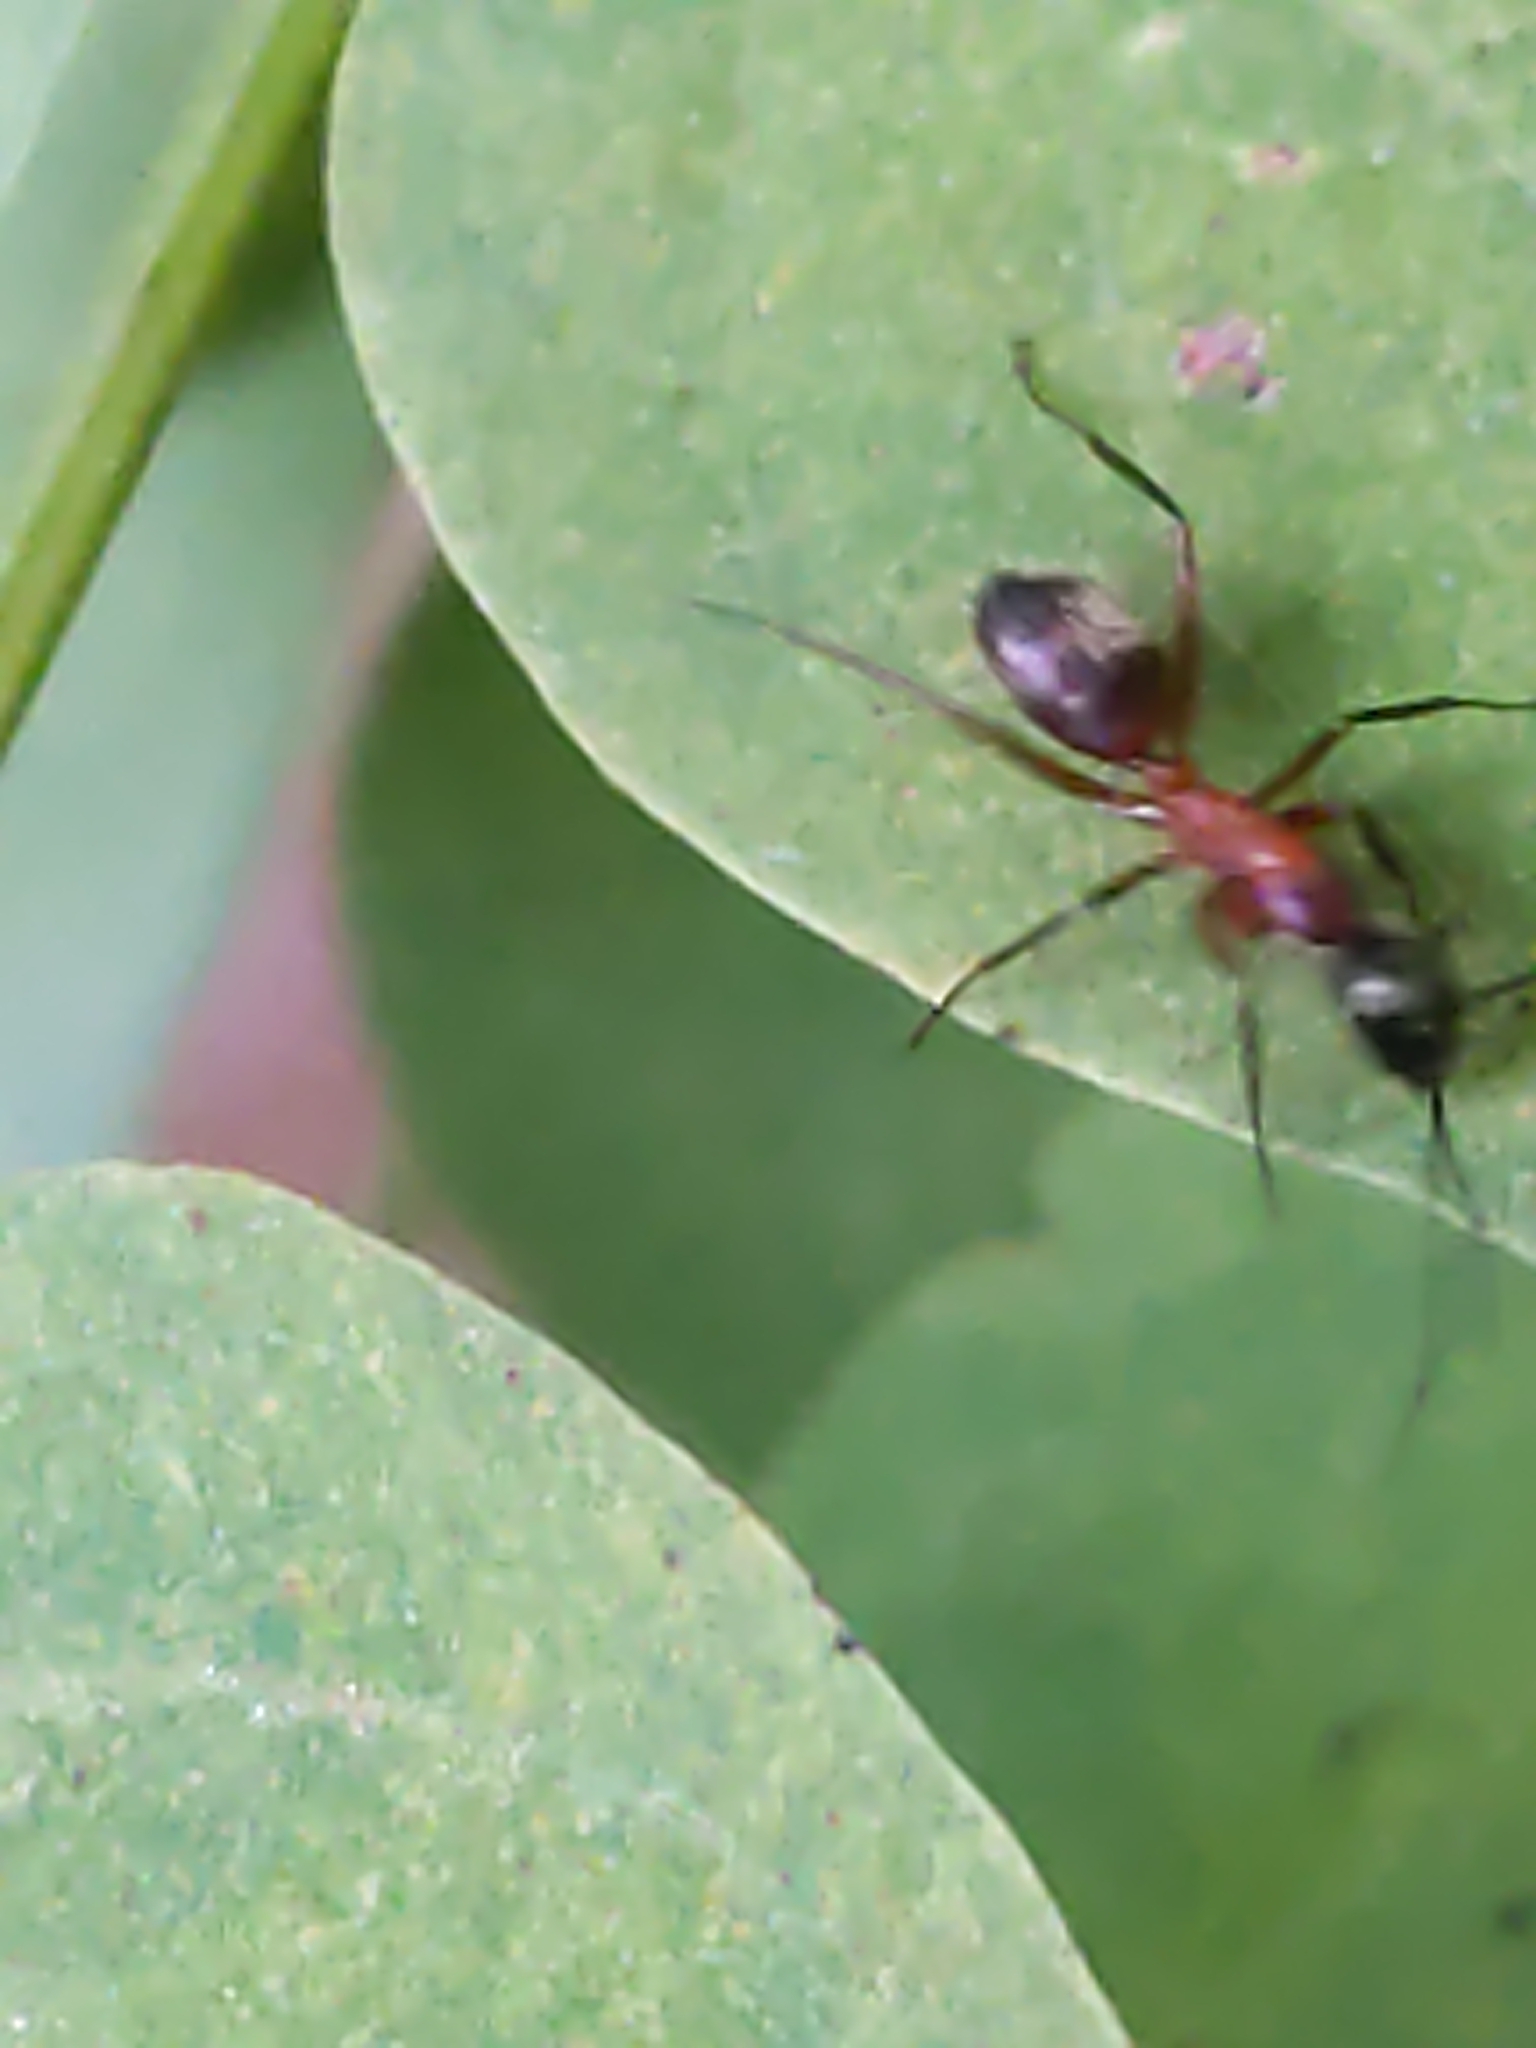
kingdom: Animalia
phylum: Arthropoda
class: Insecta
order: Hymenoptera
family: Formicidae
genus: Camponotus
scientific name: Camponotus chromaiodes
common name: Red carpenter ant
